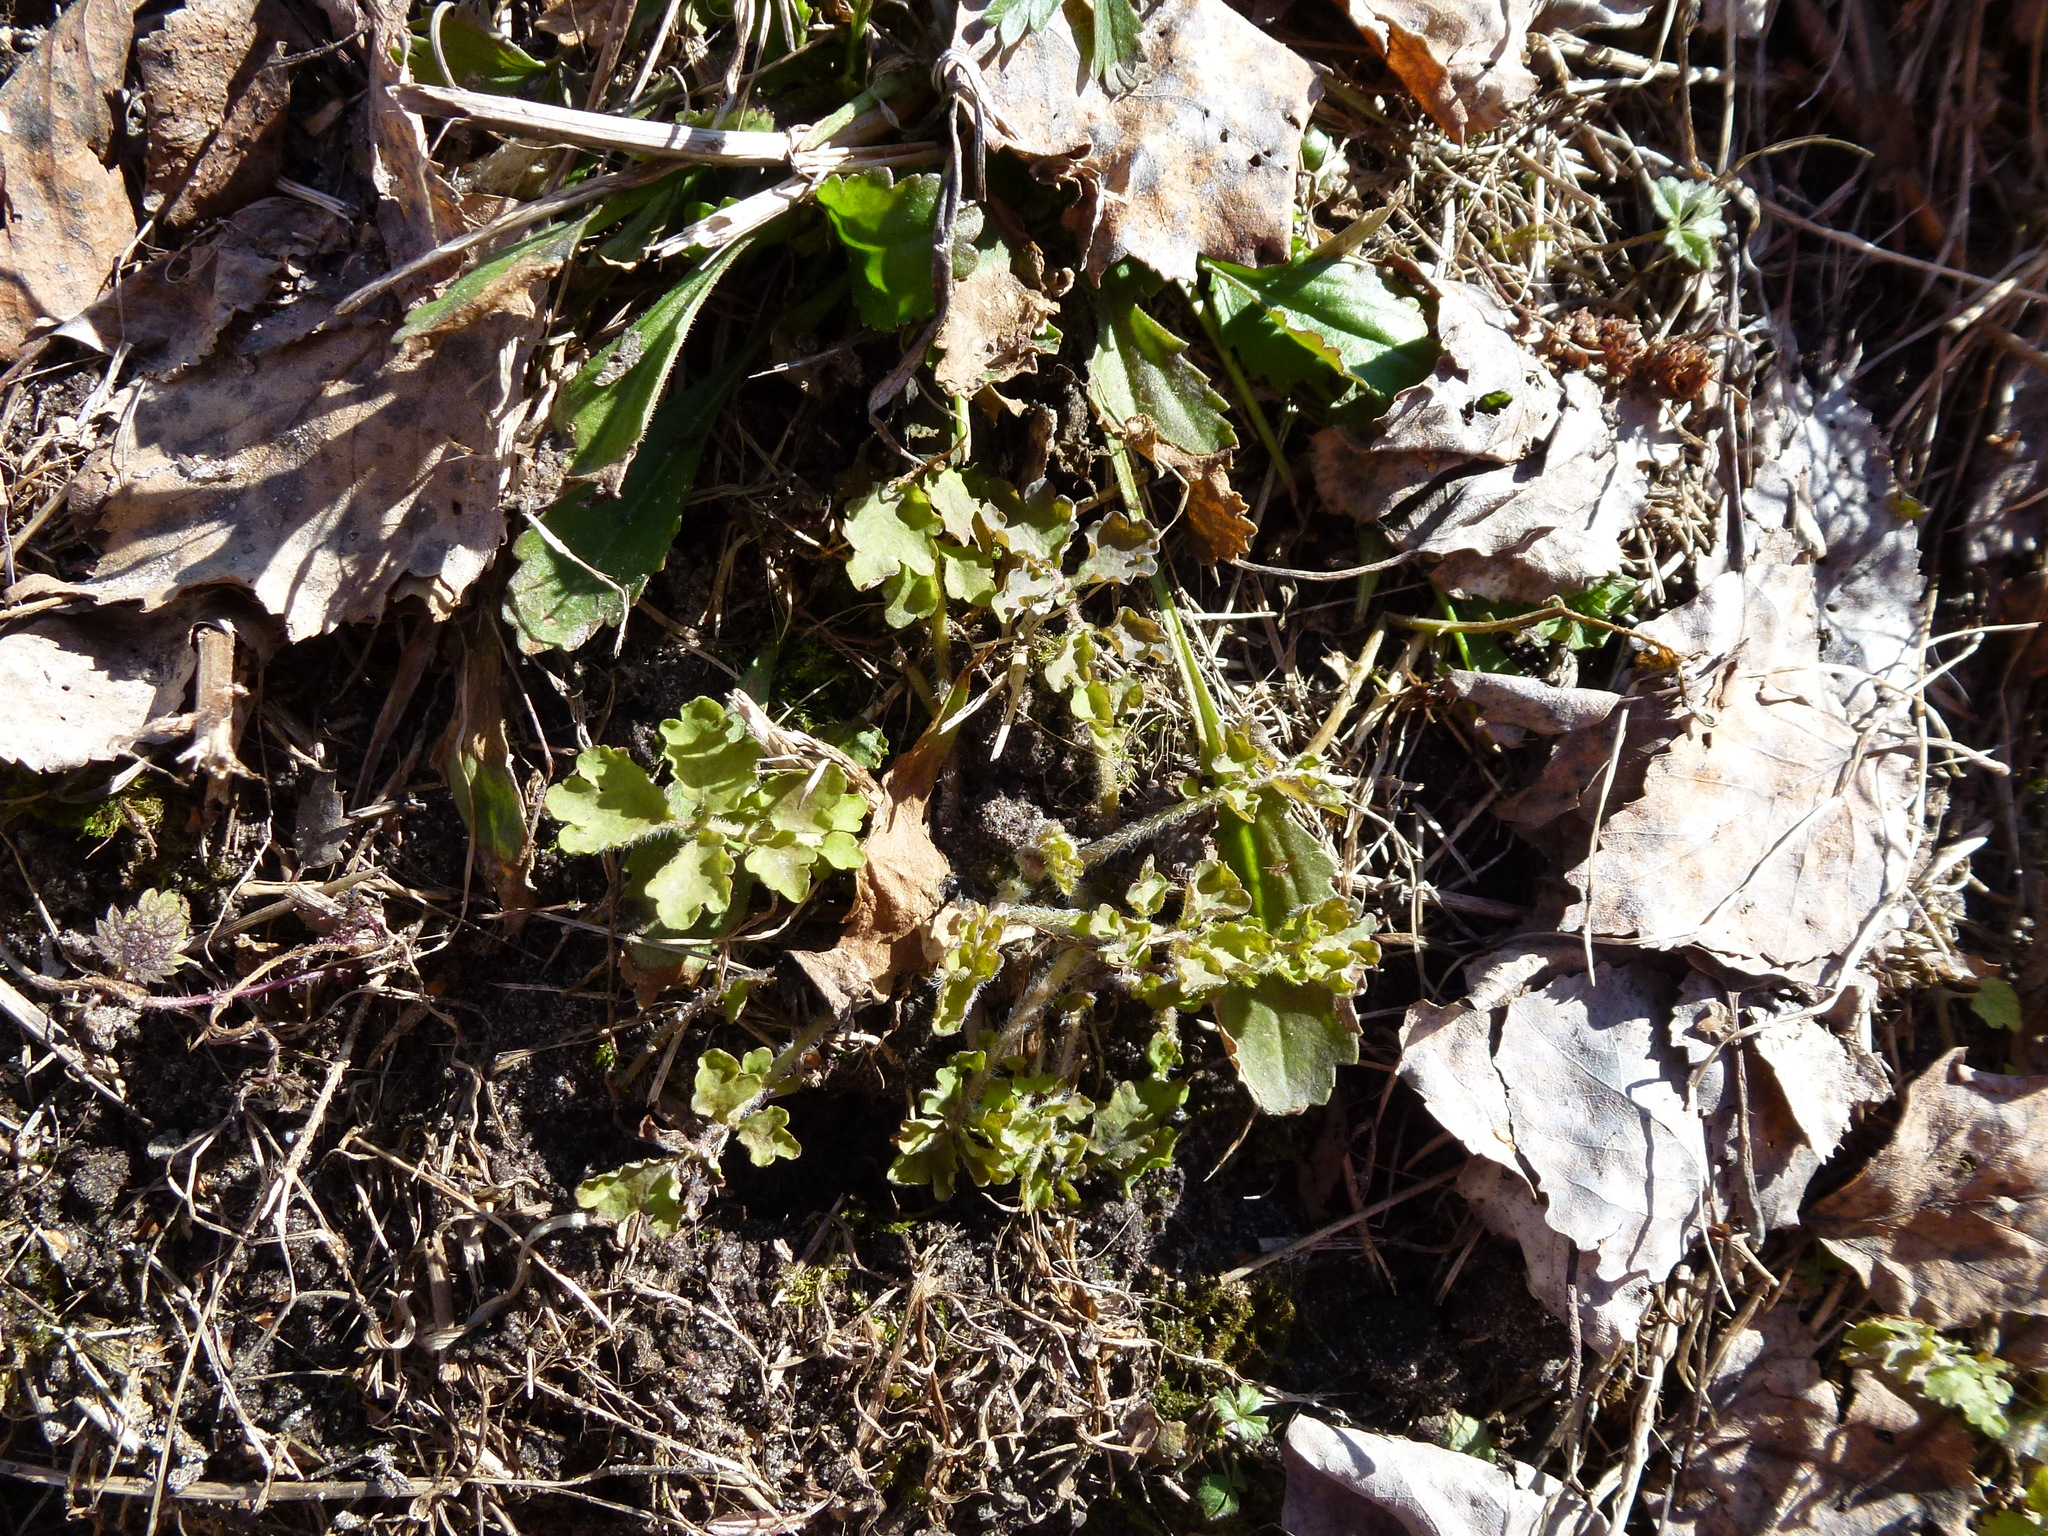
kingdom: Plantae
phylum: Tracheophyta
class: Magnoliopsida
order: Ranunculales
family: Papaveraceae
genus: Chelidonium
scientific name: Chelidonium majus
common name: Greater celandine
